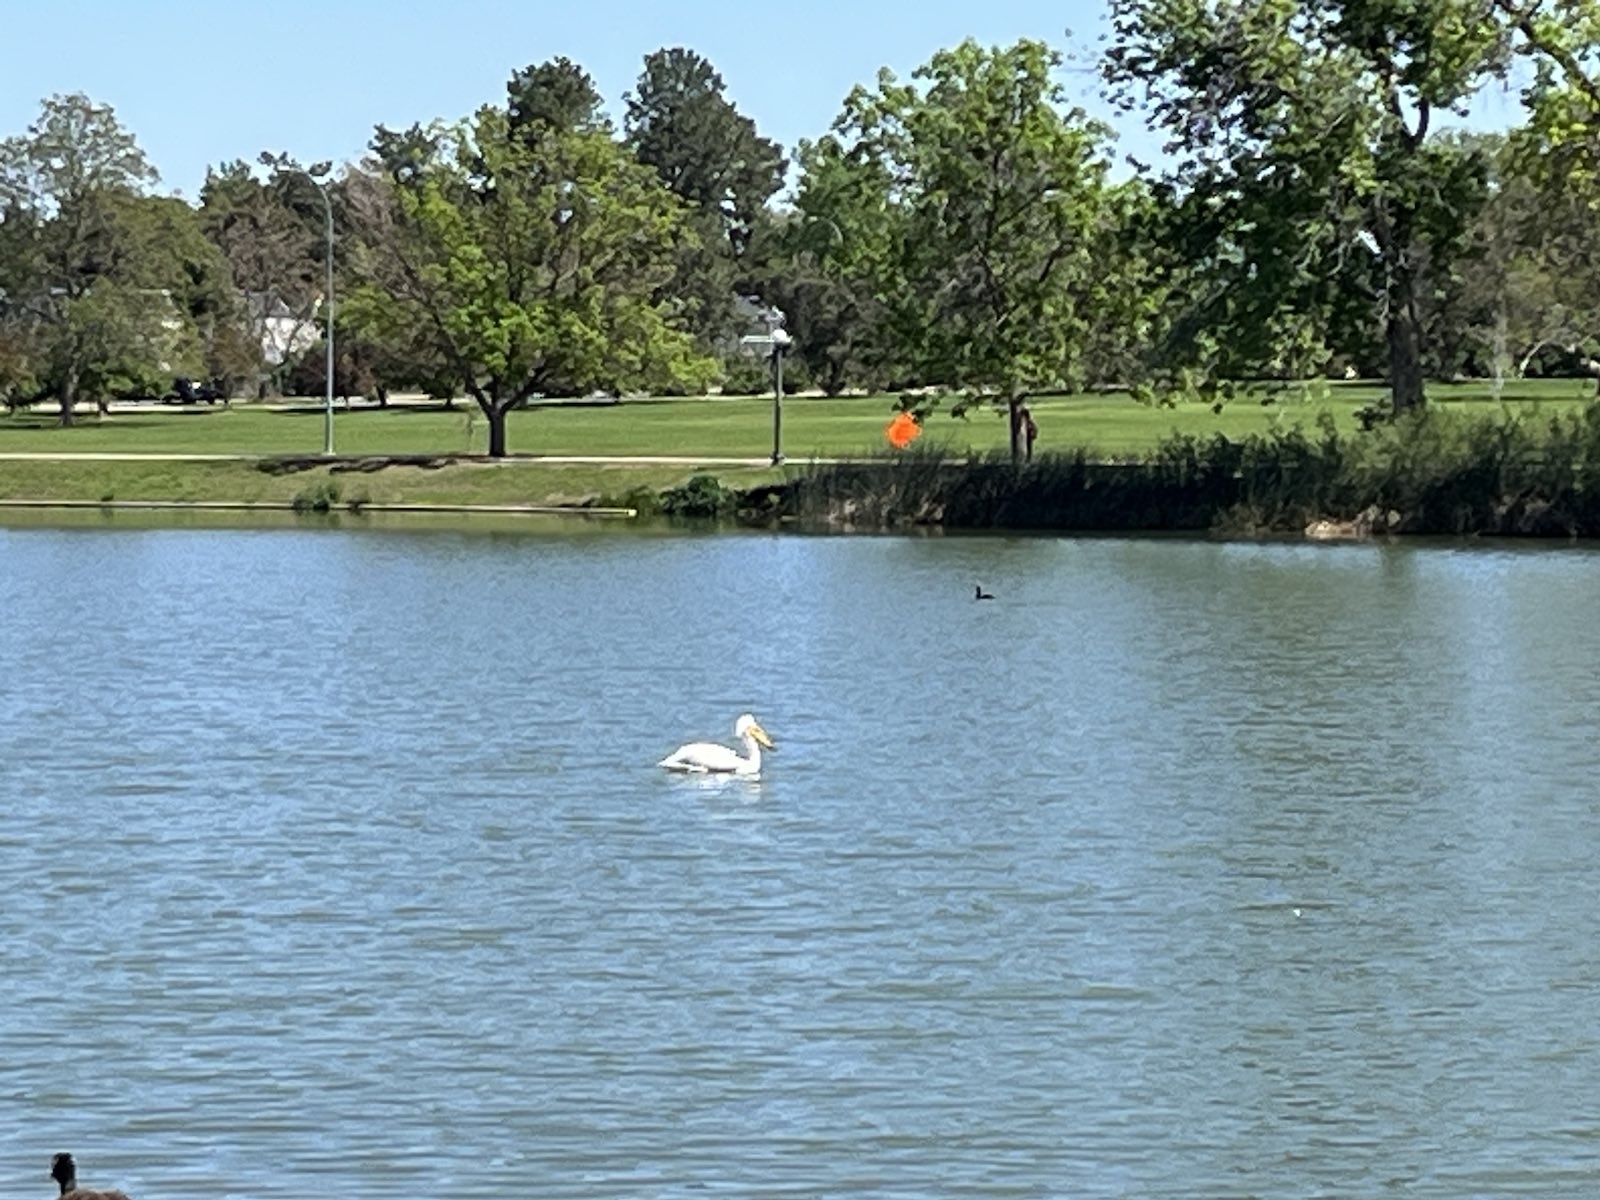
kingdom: Animalia
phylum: Chordata
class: Aves
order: Pelecaniformes
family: Pelecanidae
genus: Pelecanus
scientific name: Pelecanus erythrorhynchos
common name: American white pelican
